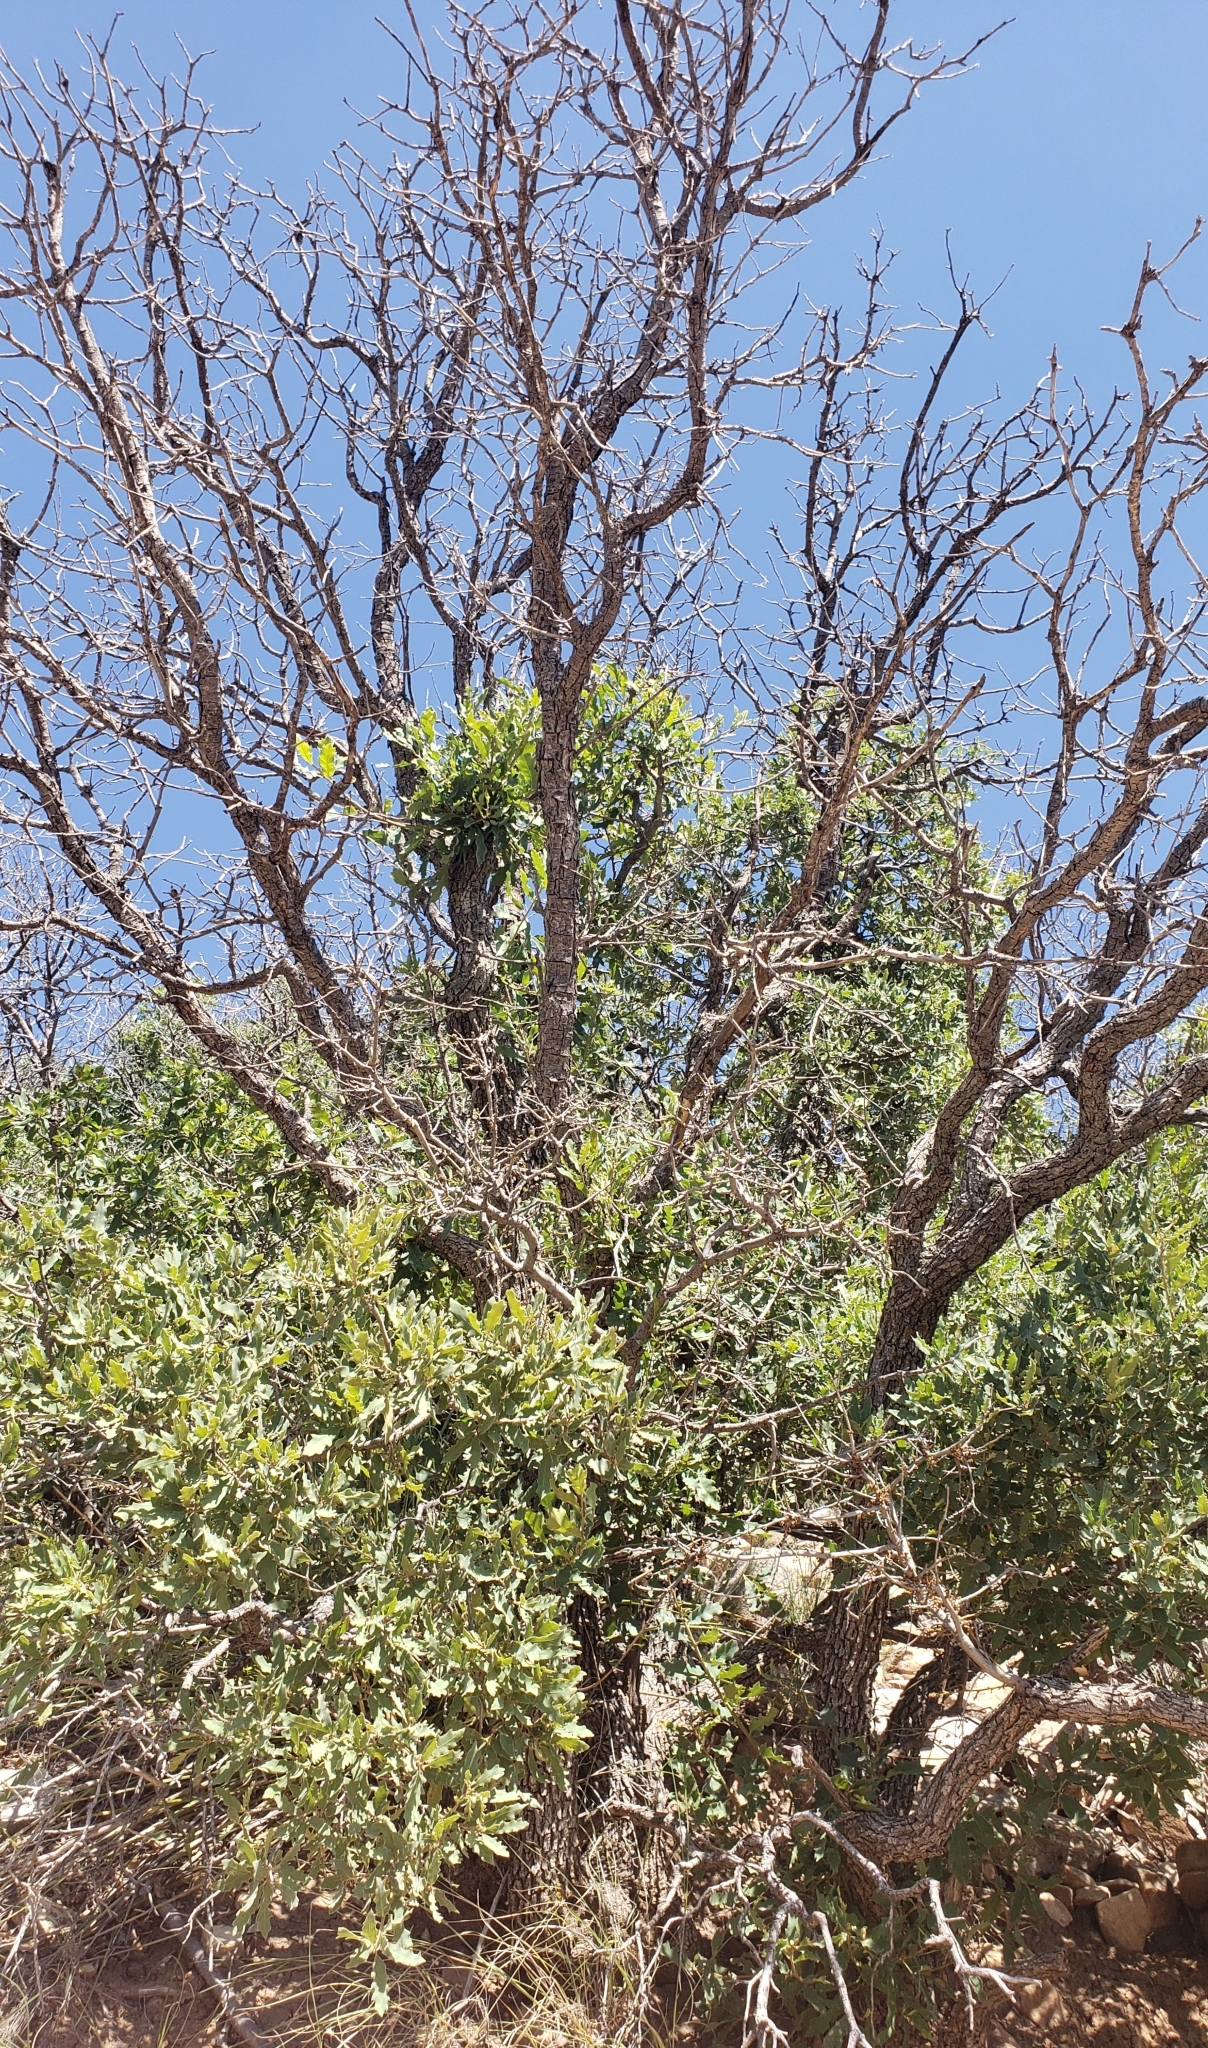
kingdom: Plantae
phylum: Tracheophyta
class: Magnoliopsida
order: Fagales
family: Fagaceae
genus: Quercus
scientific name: Quercus undulata
